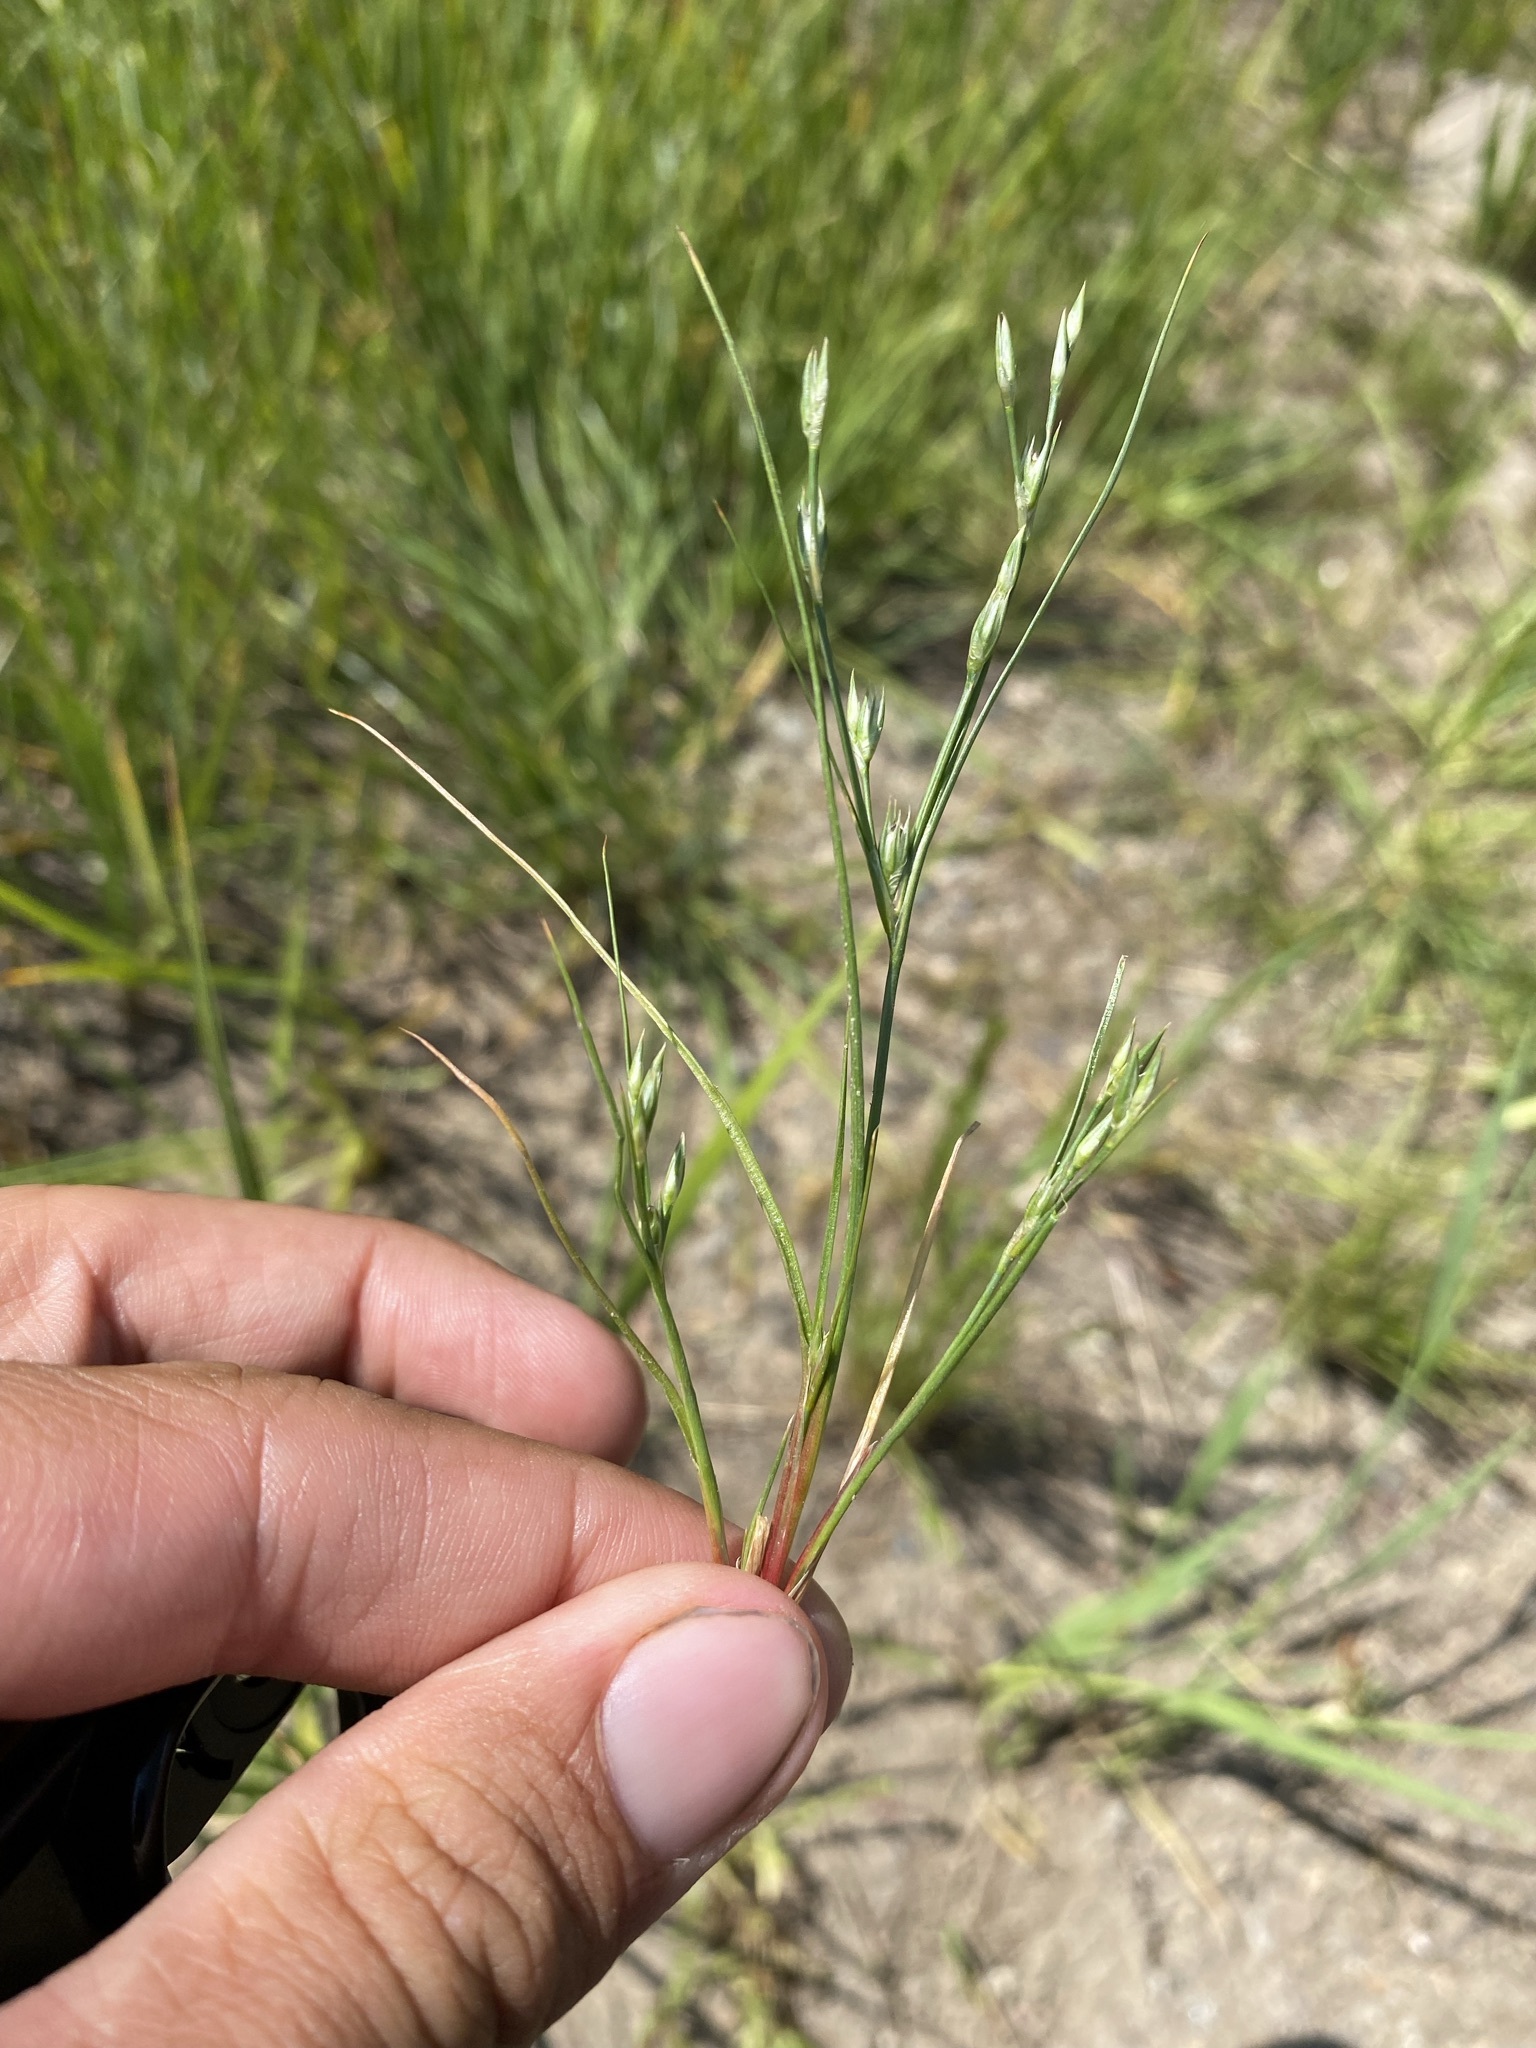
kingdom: Plantae
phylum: Tracheophyta
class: Liliopsida
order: Poales
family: Juncaceae
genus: Juncus
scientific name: Juncus bufonius
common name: Toad rush
